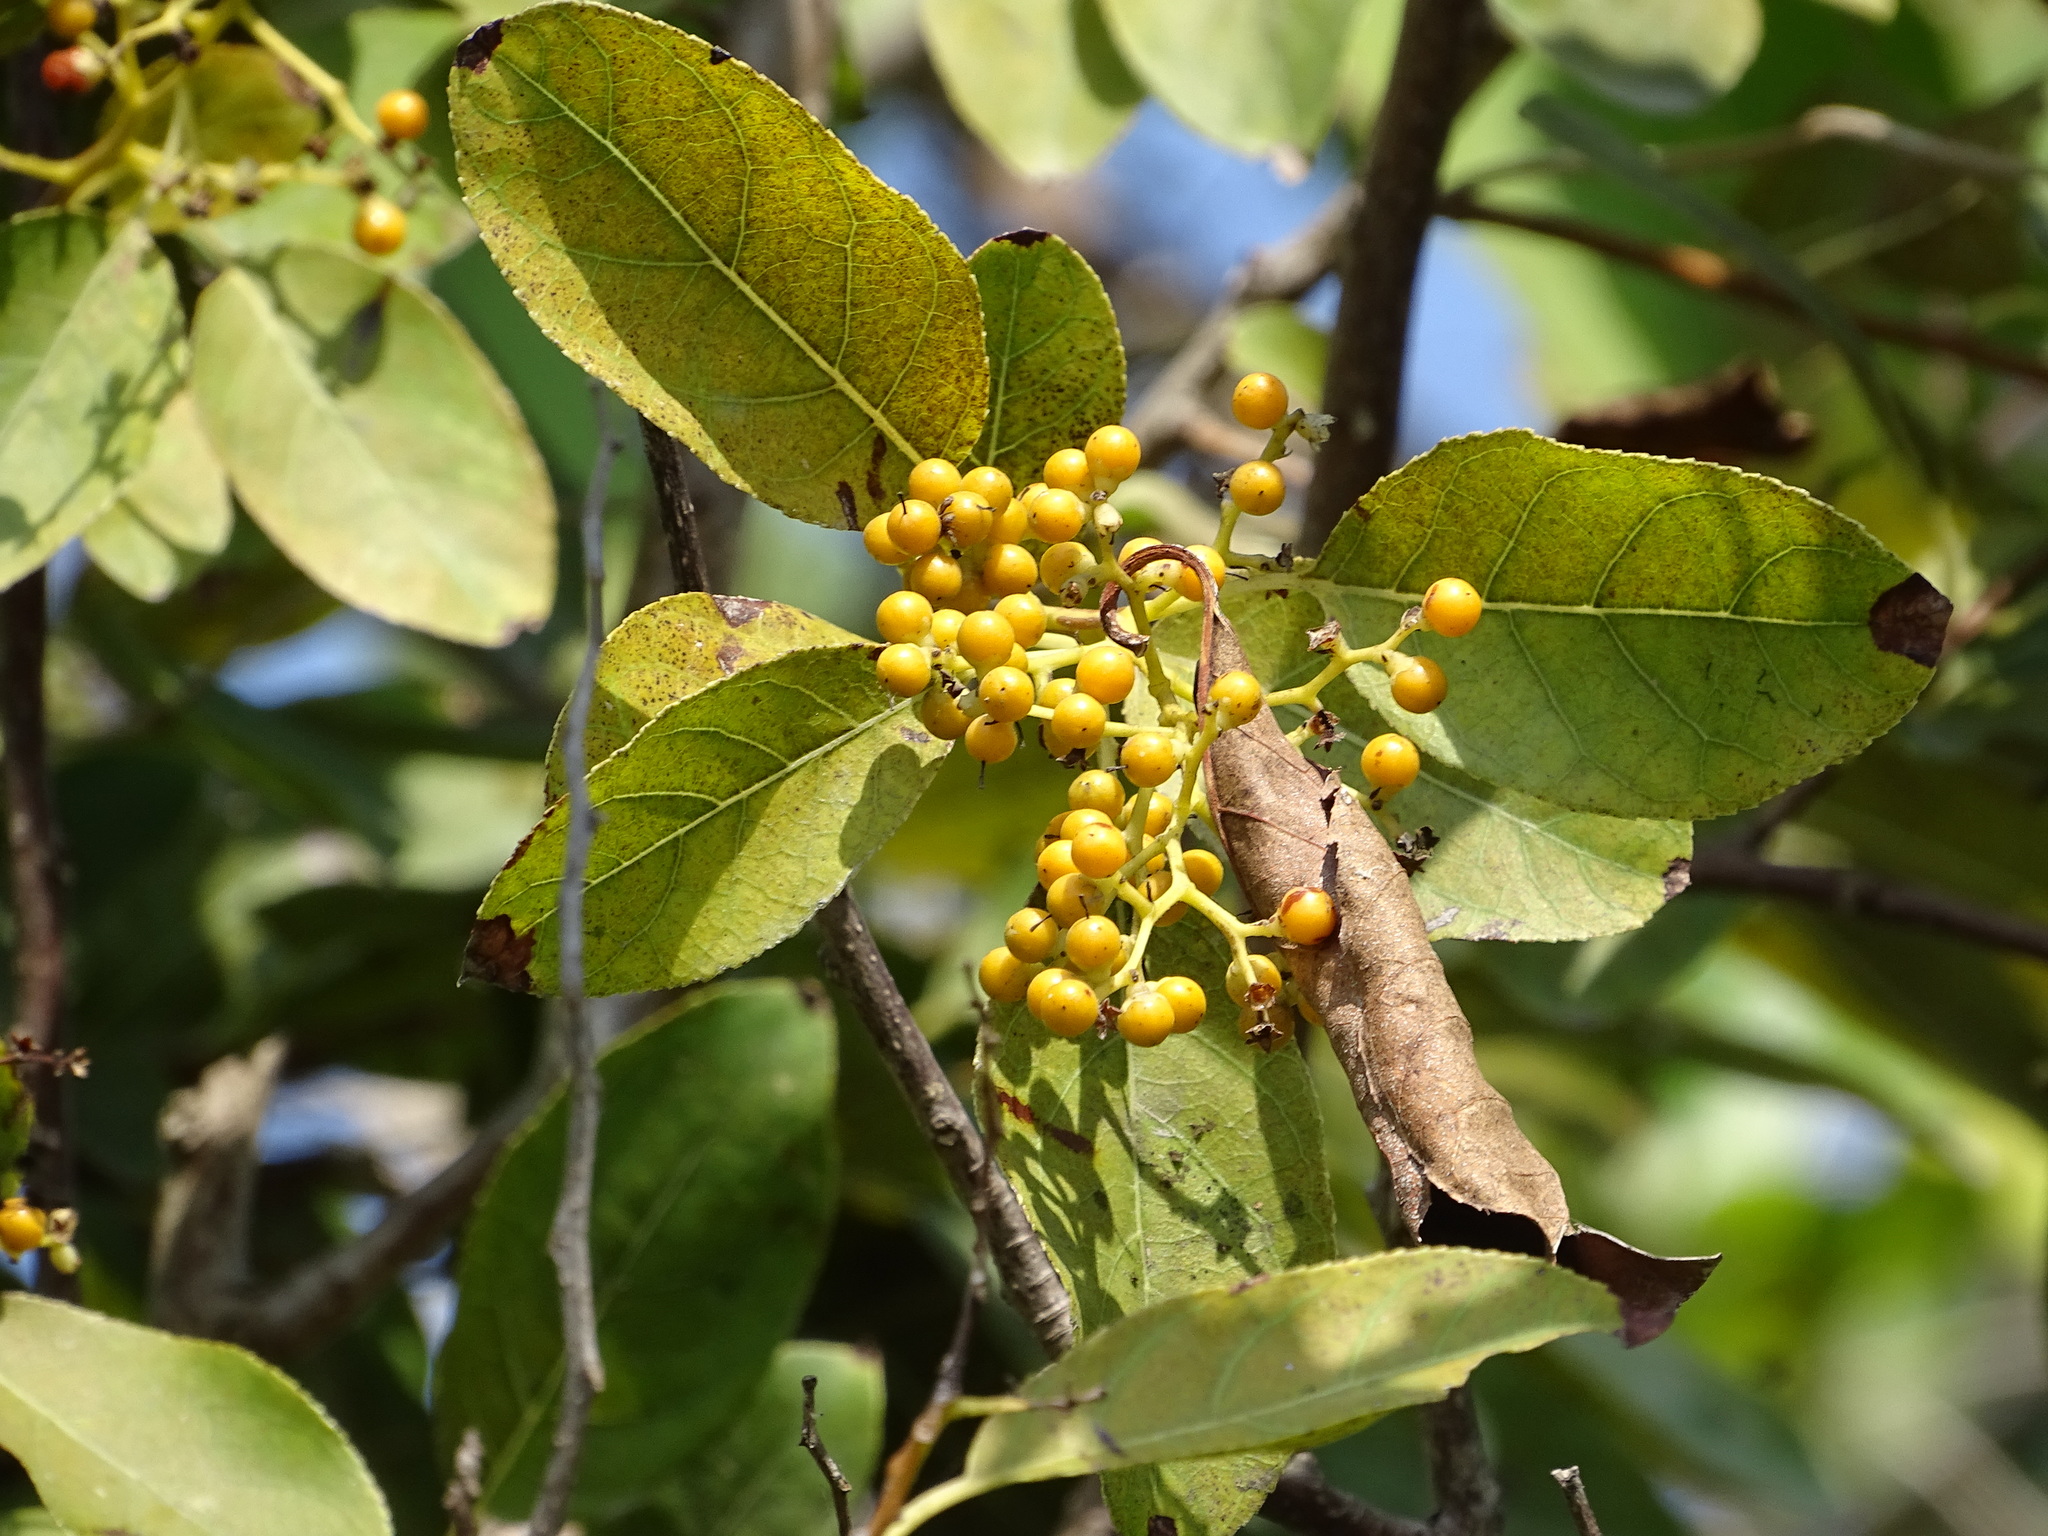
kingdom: Plantae
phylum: Tracheophyta
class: Magnoliopsida
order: Boraginales
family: Ehretiaceae
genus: Ehretia
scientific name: Ehretia acuminata
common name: Kodo wood
